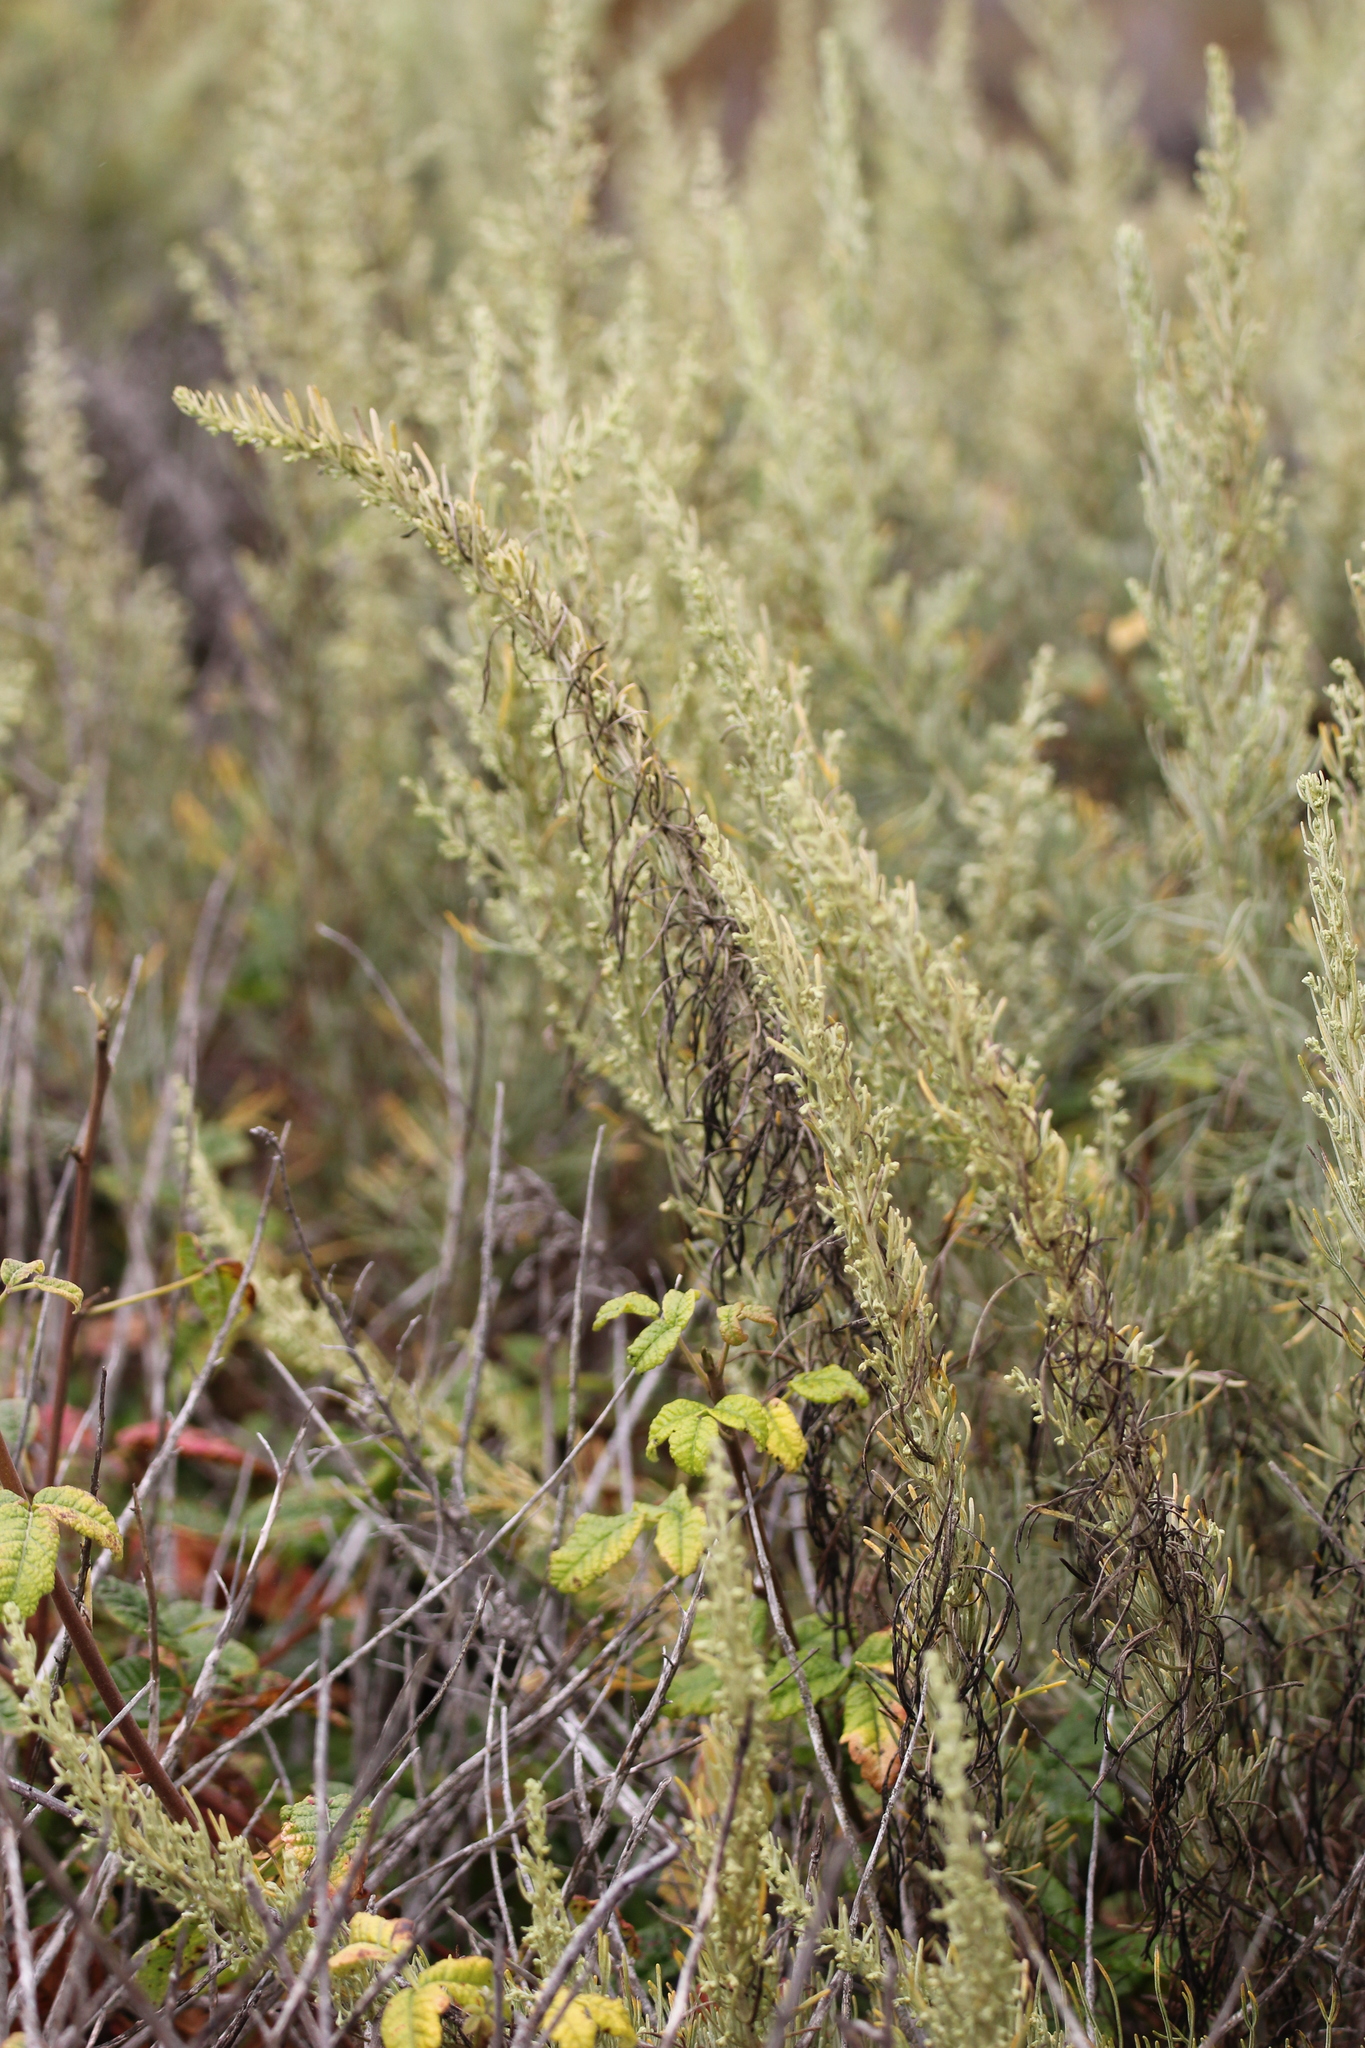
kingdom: Plantae
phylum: Tracheophyta
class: Magnoliopsida
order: Asterales
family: Asteraceae
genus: Artemisia
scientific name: Artemisia californica
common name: California sagebrush
